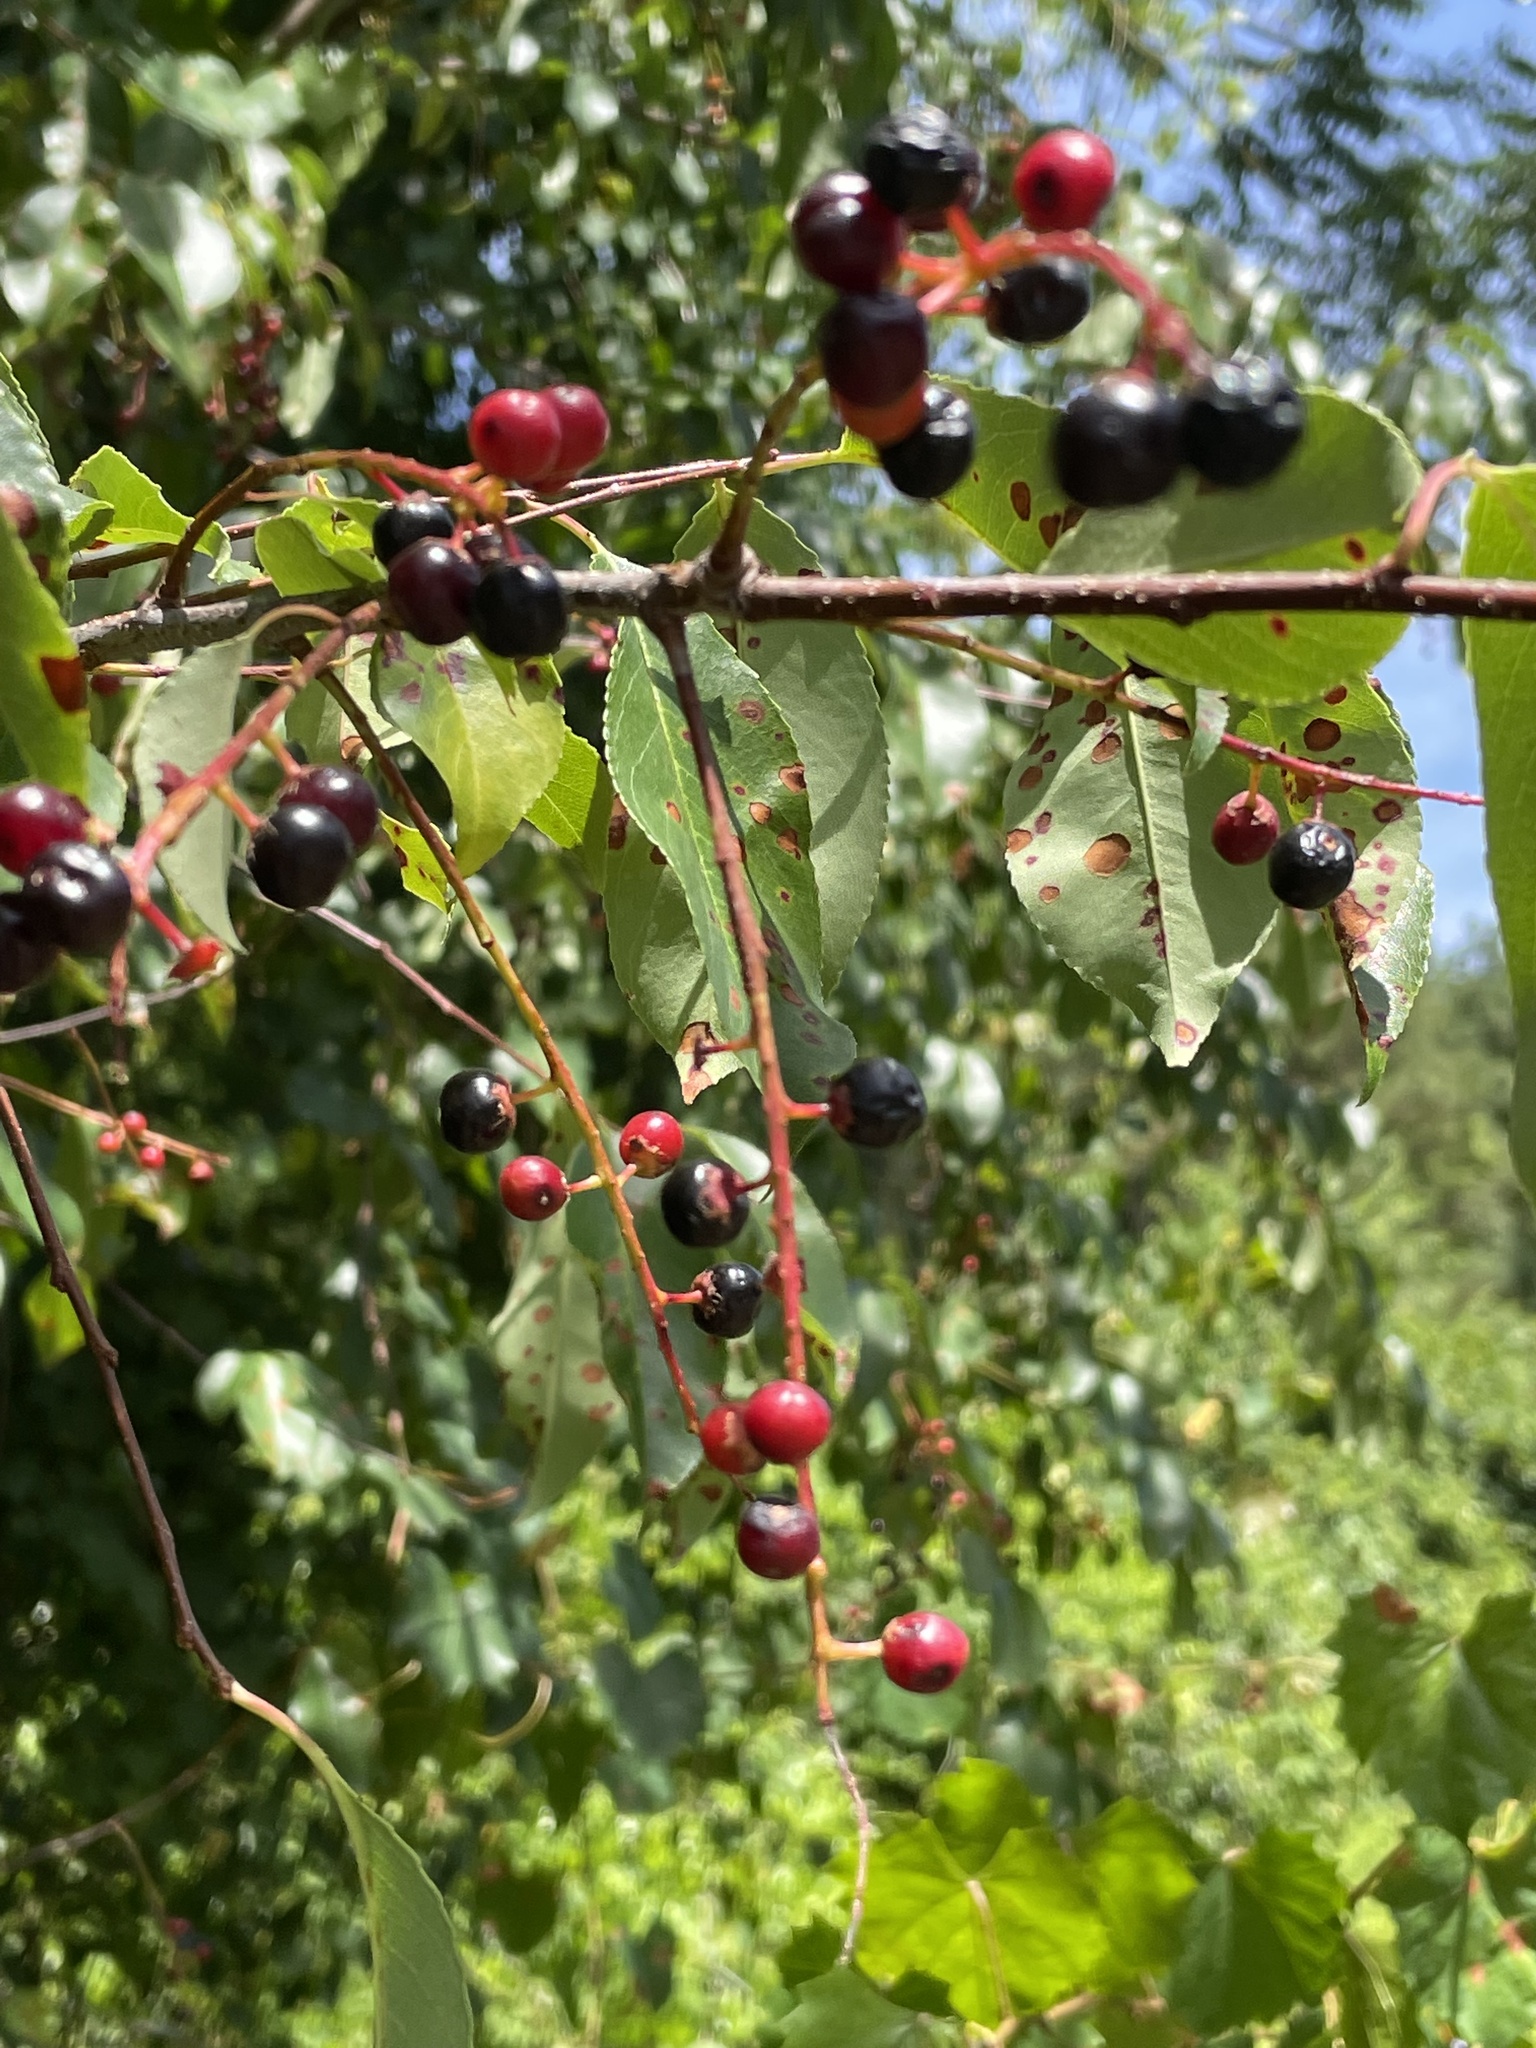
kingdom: Plantae
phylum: Tracheophyta
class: Magnoliopsida
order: Rosales
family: Rosaceae
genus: Prunus
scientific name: Prunus serotina
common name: Black cherry
